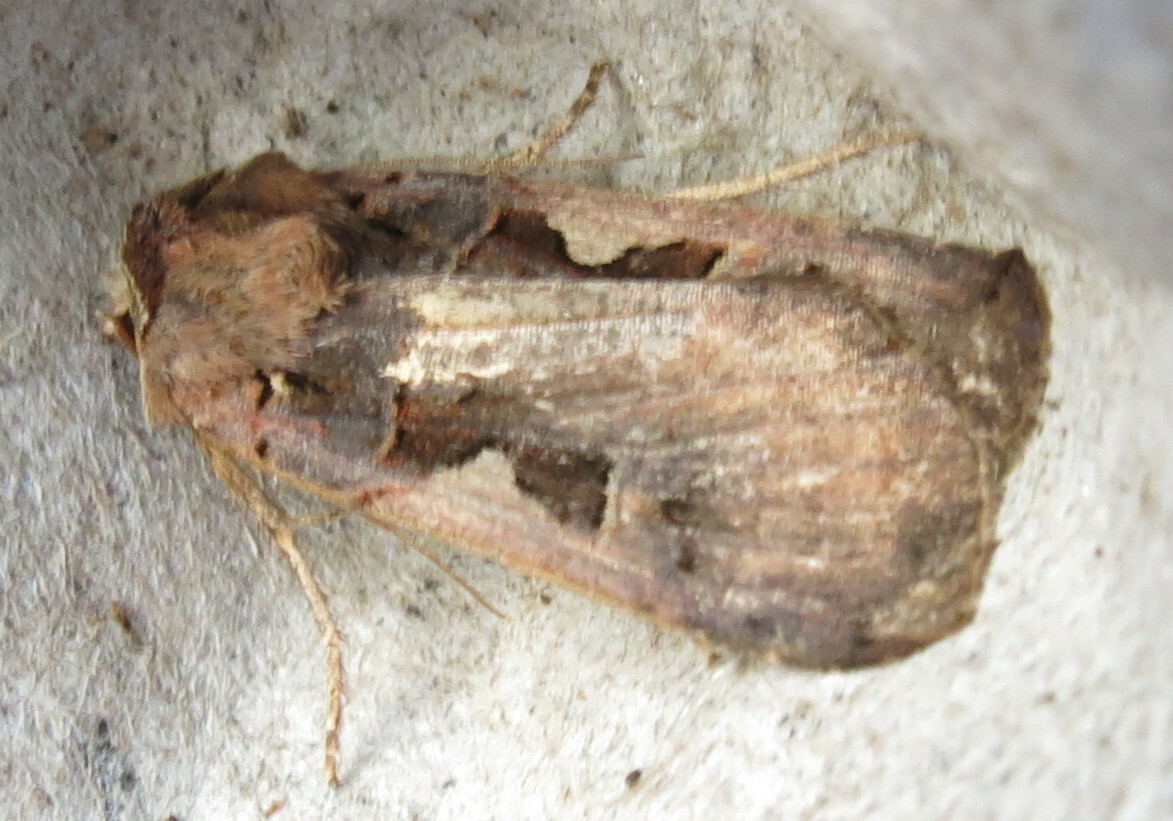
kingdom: Animalia
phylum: Arthropoda
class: Insecta
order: Lepidoptera
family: Noctuidae
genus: Xestia
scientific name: Xestia c-nigrum
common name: Setaceous hebrew character
